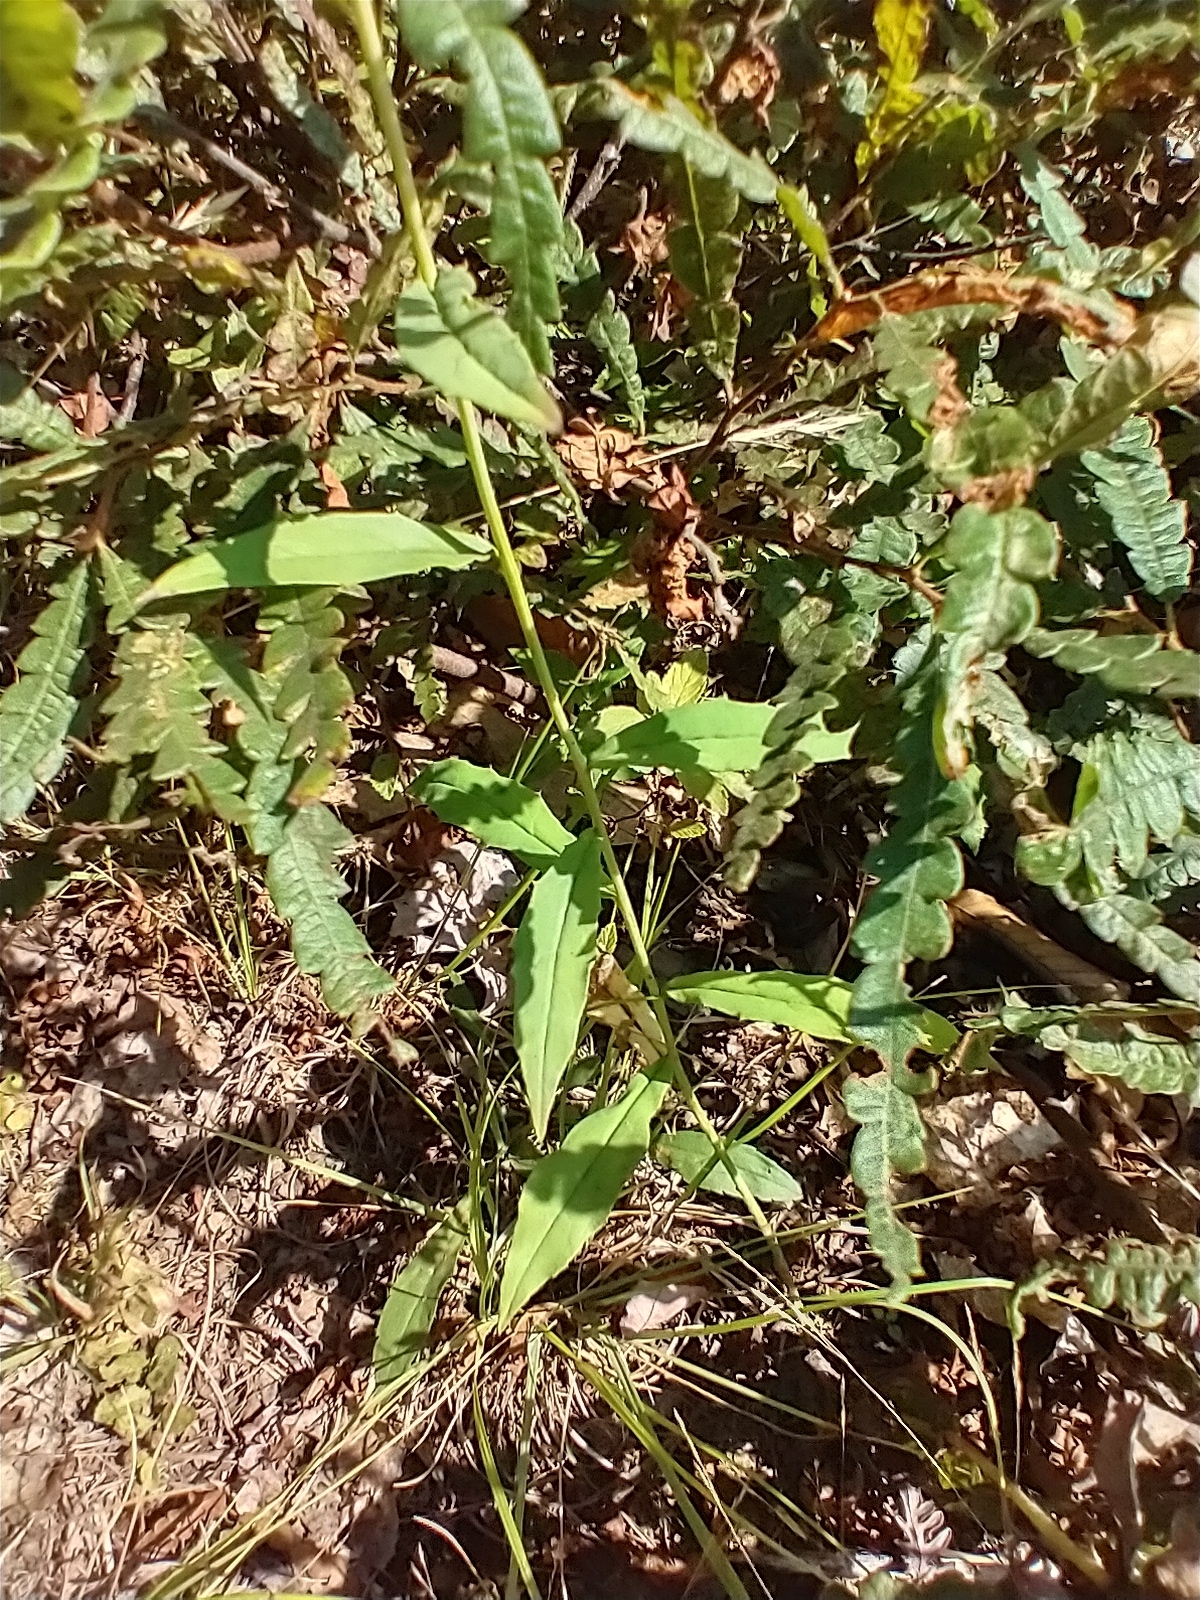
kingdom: Plantae
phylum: Tracheophyta
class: Magnoliopsida
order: Asterales
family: Asteraceae
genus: Hieracium
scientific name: Hieracium paniculatum
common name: Allegheny hawkweed
